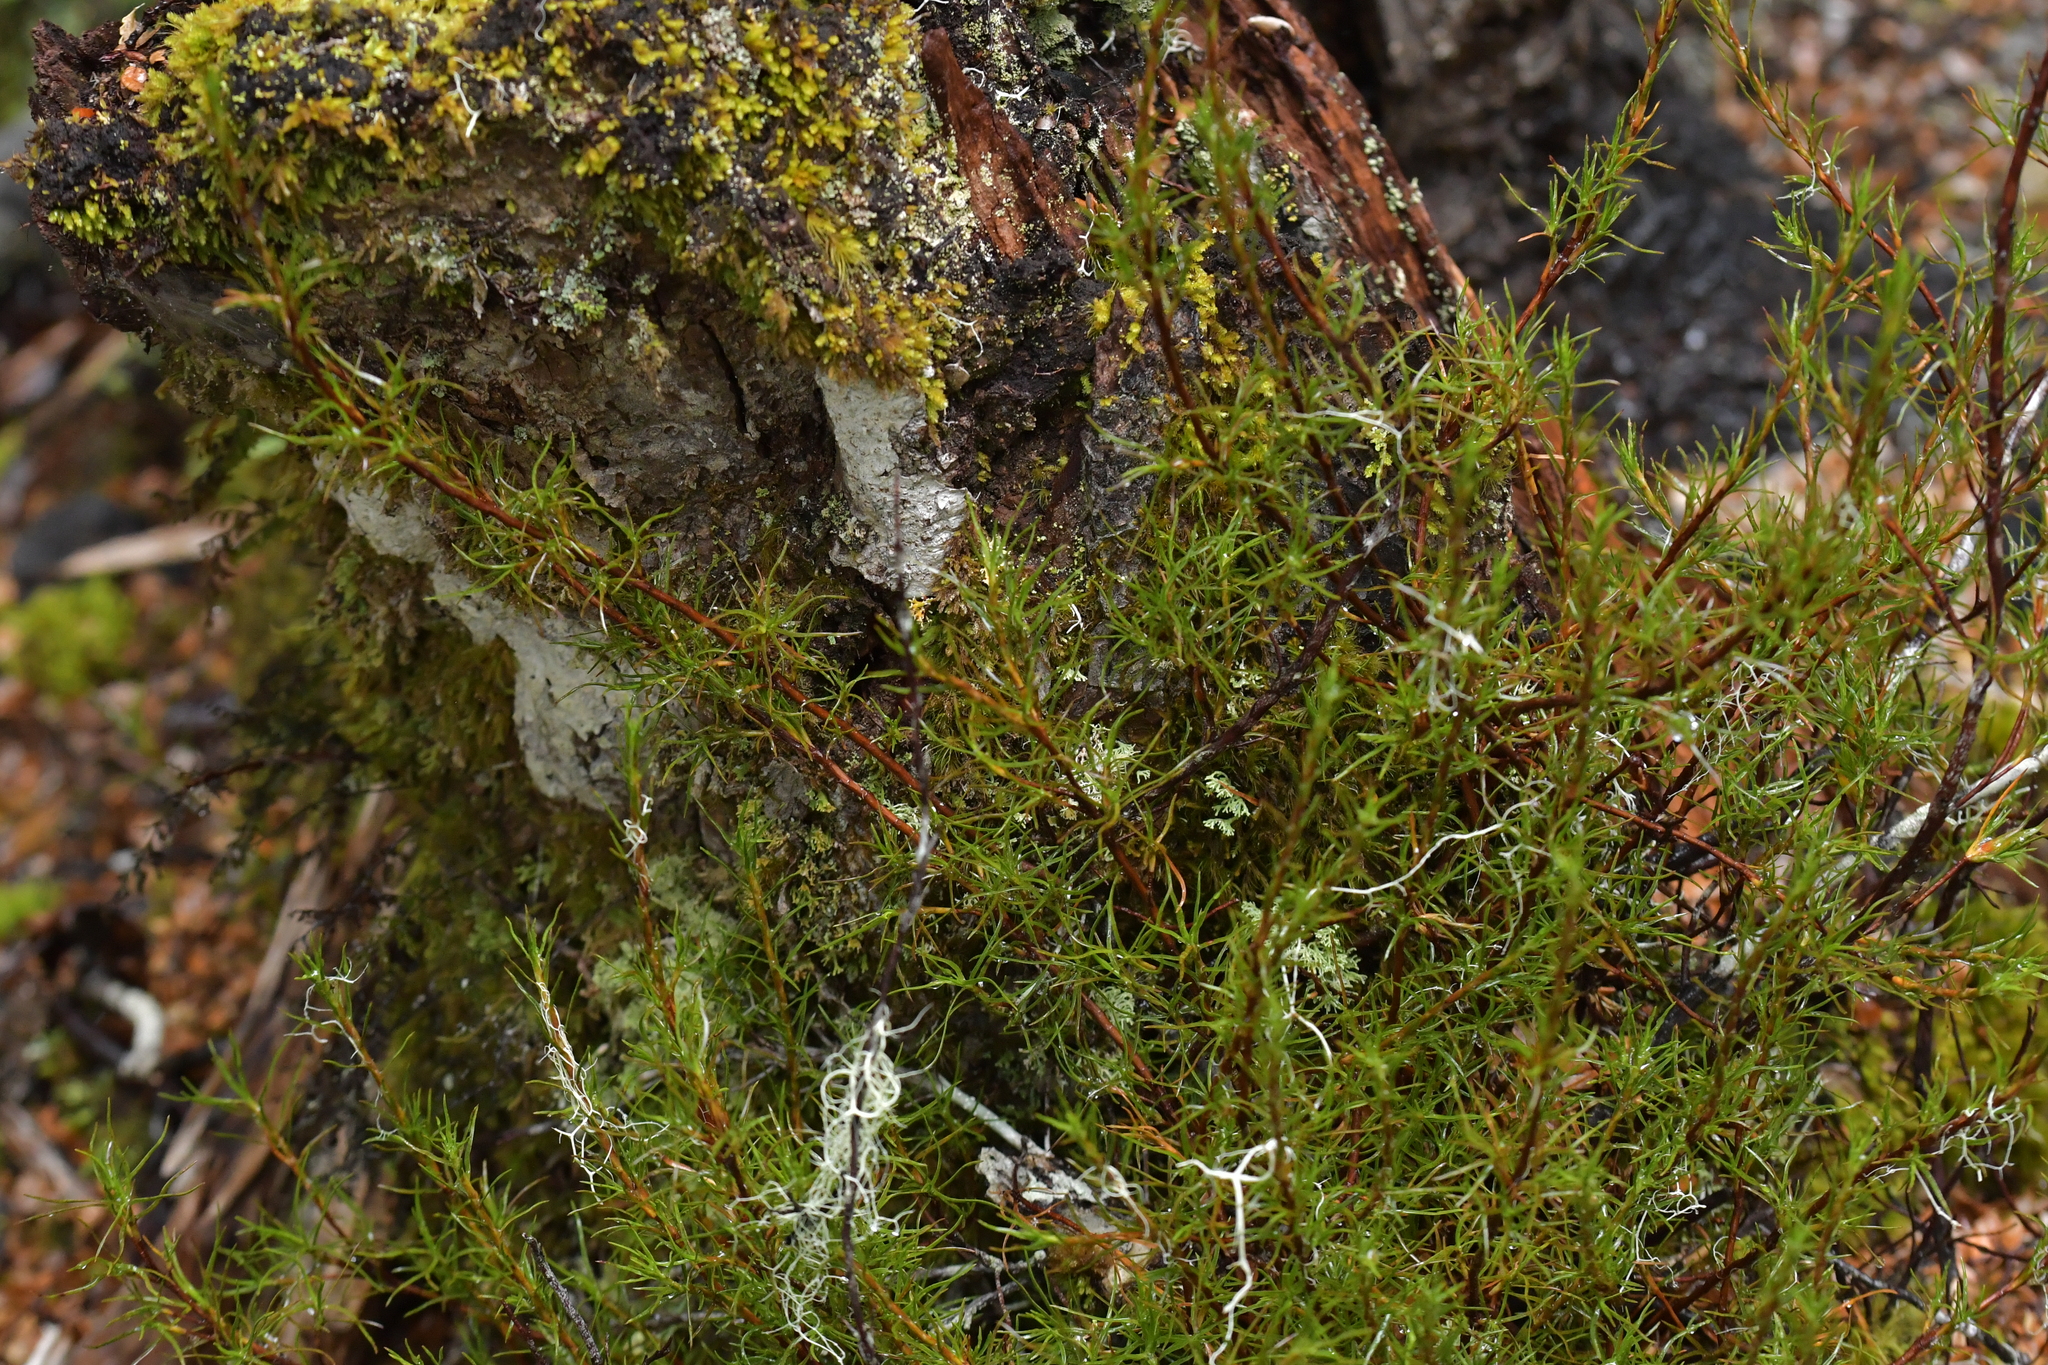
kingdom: Plantae
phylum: Tracheophyta
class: Magnoliopsida
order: Ericales
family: Ericaceae
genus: Dracophyllum
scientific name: Dracophyllum rosmarinifolium
